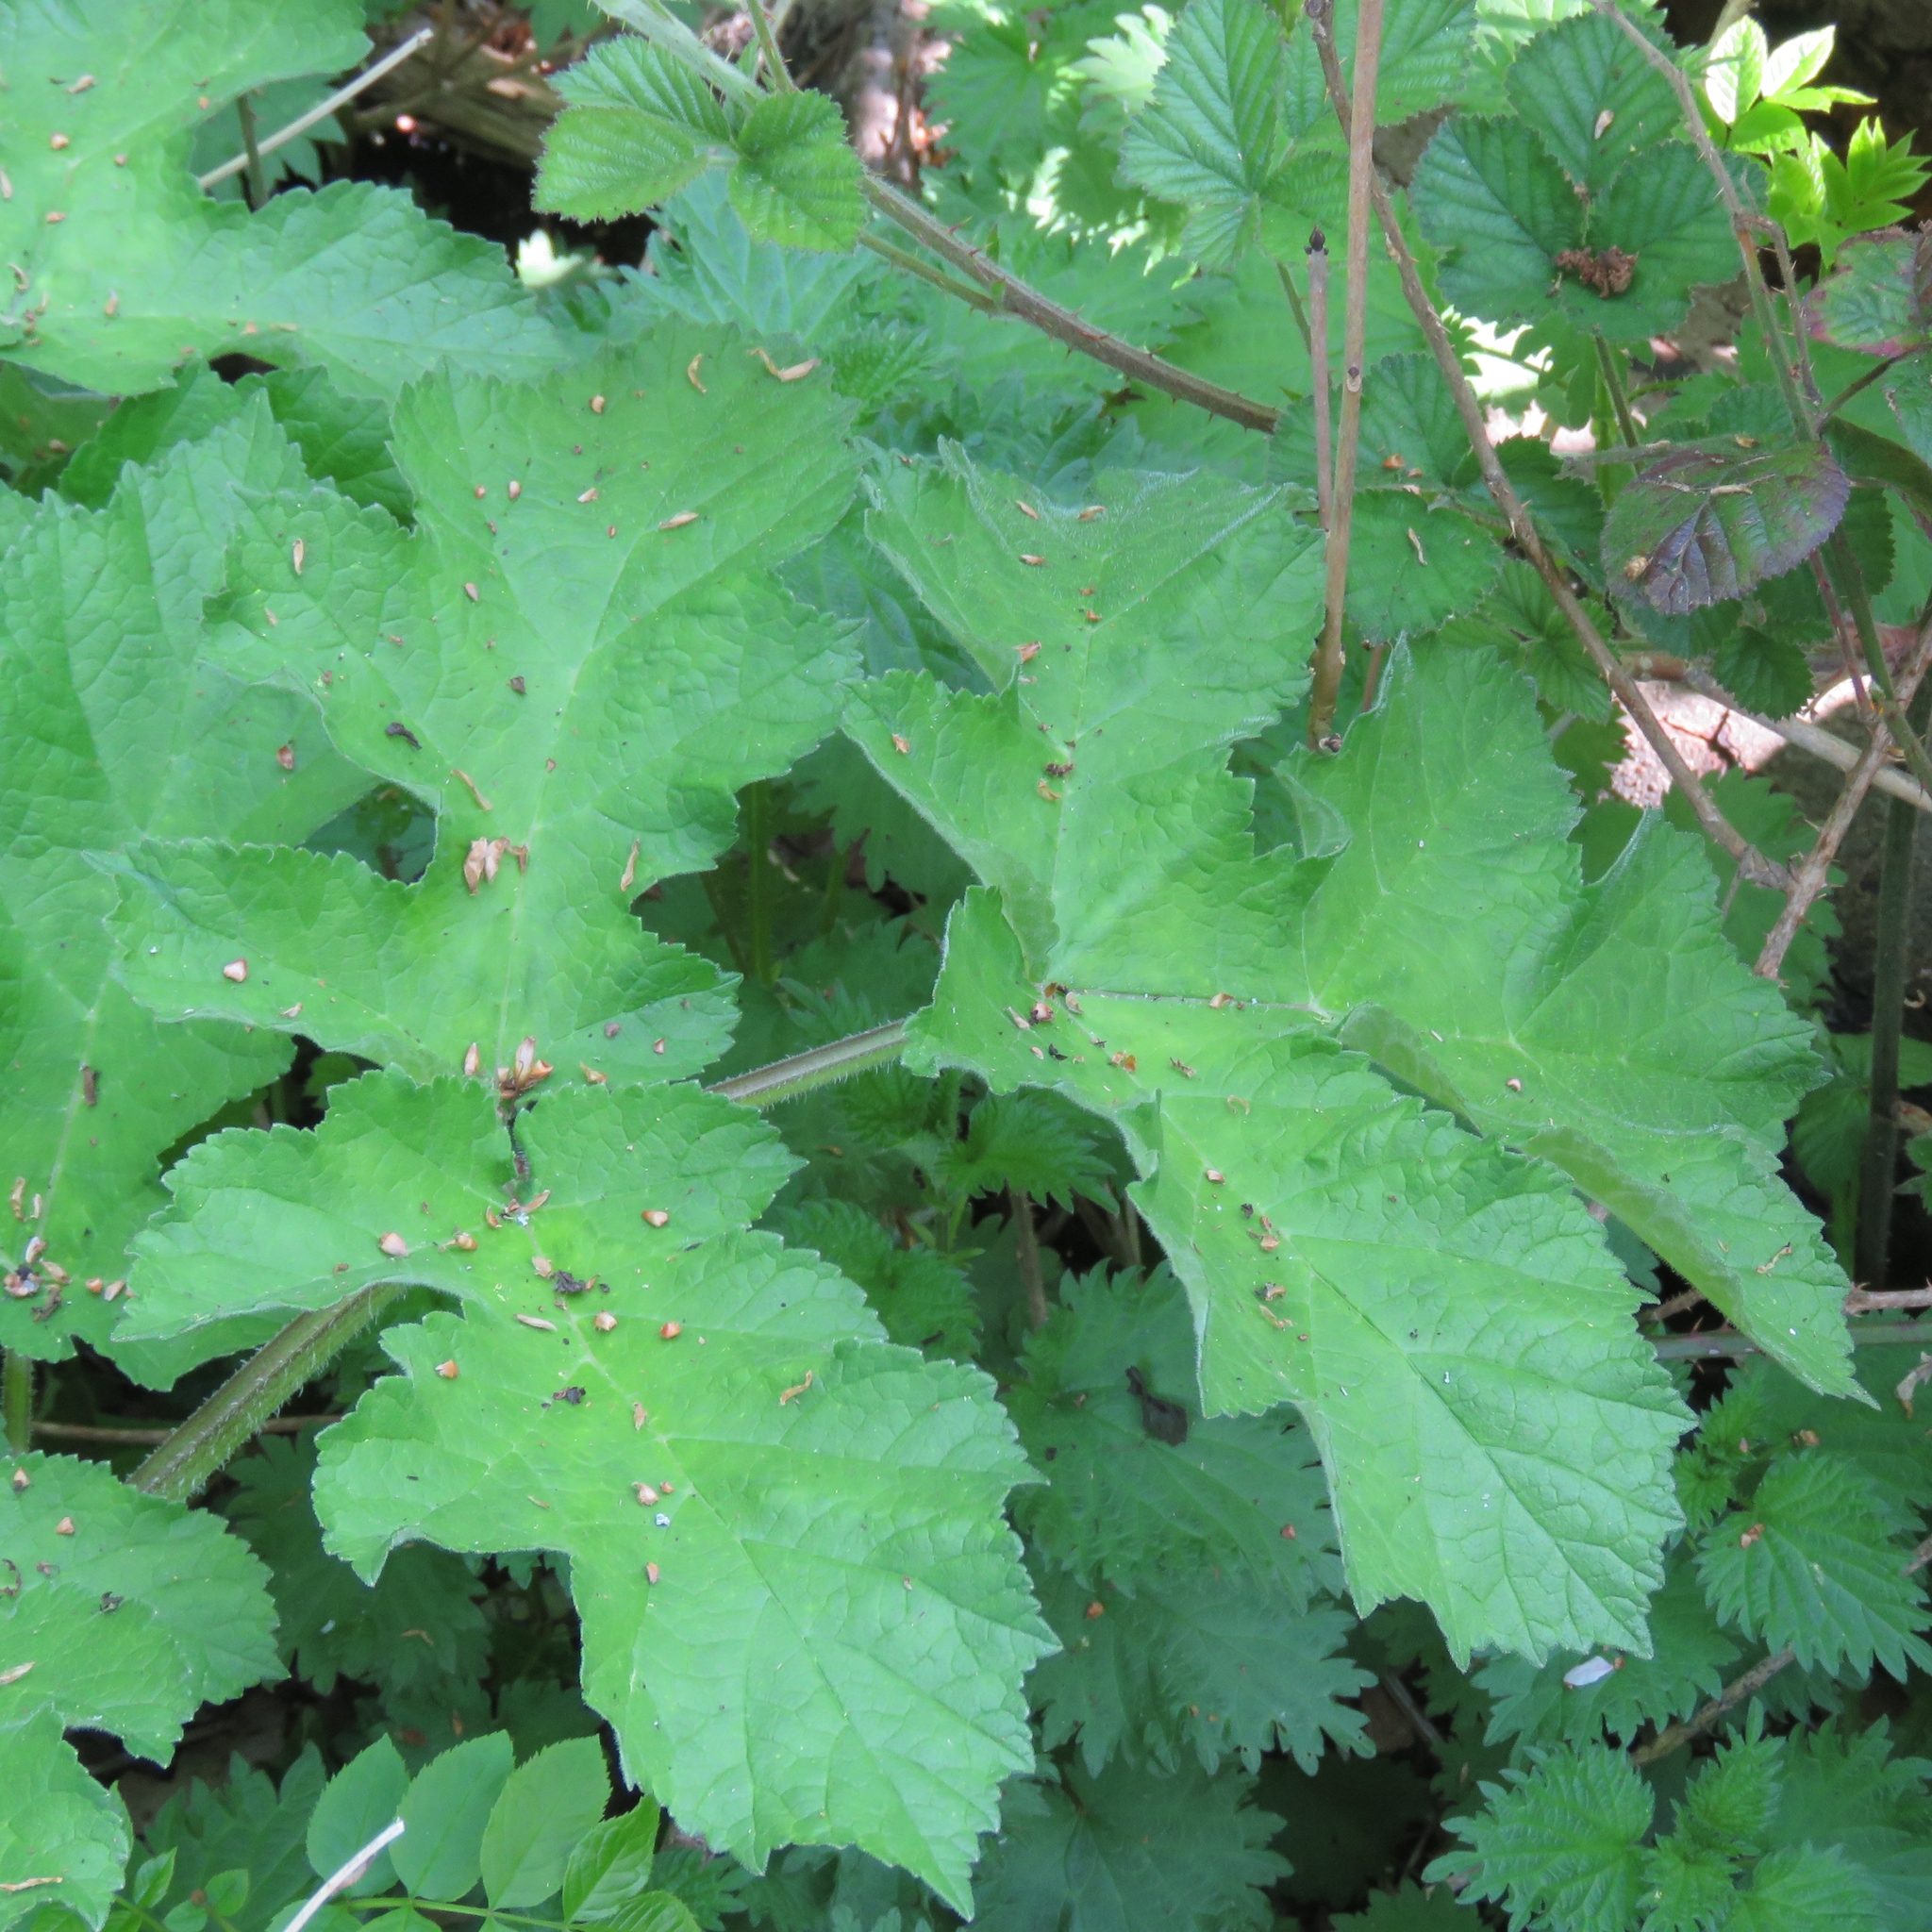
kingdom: Plantae
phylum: Tracheophyta
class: Magnoliopsida
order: Apiales
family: Apiaceae
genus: Heracleum
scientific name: Heracleum sphondylium
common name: Hogweed
